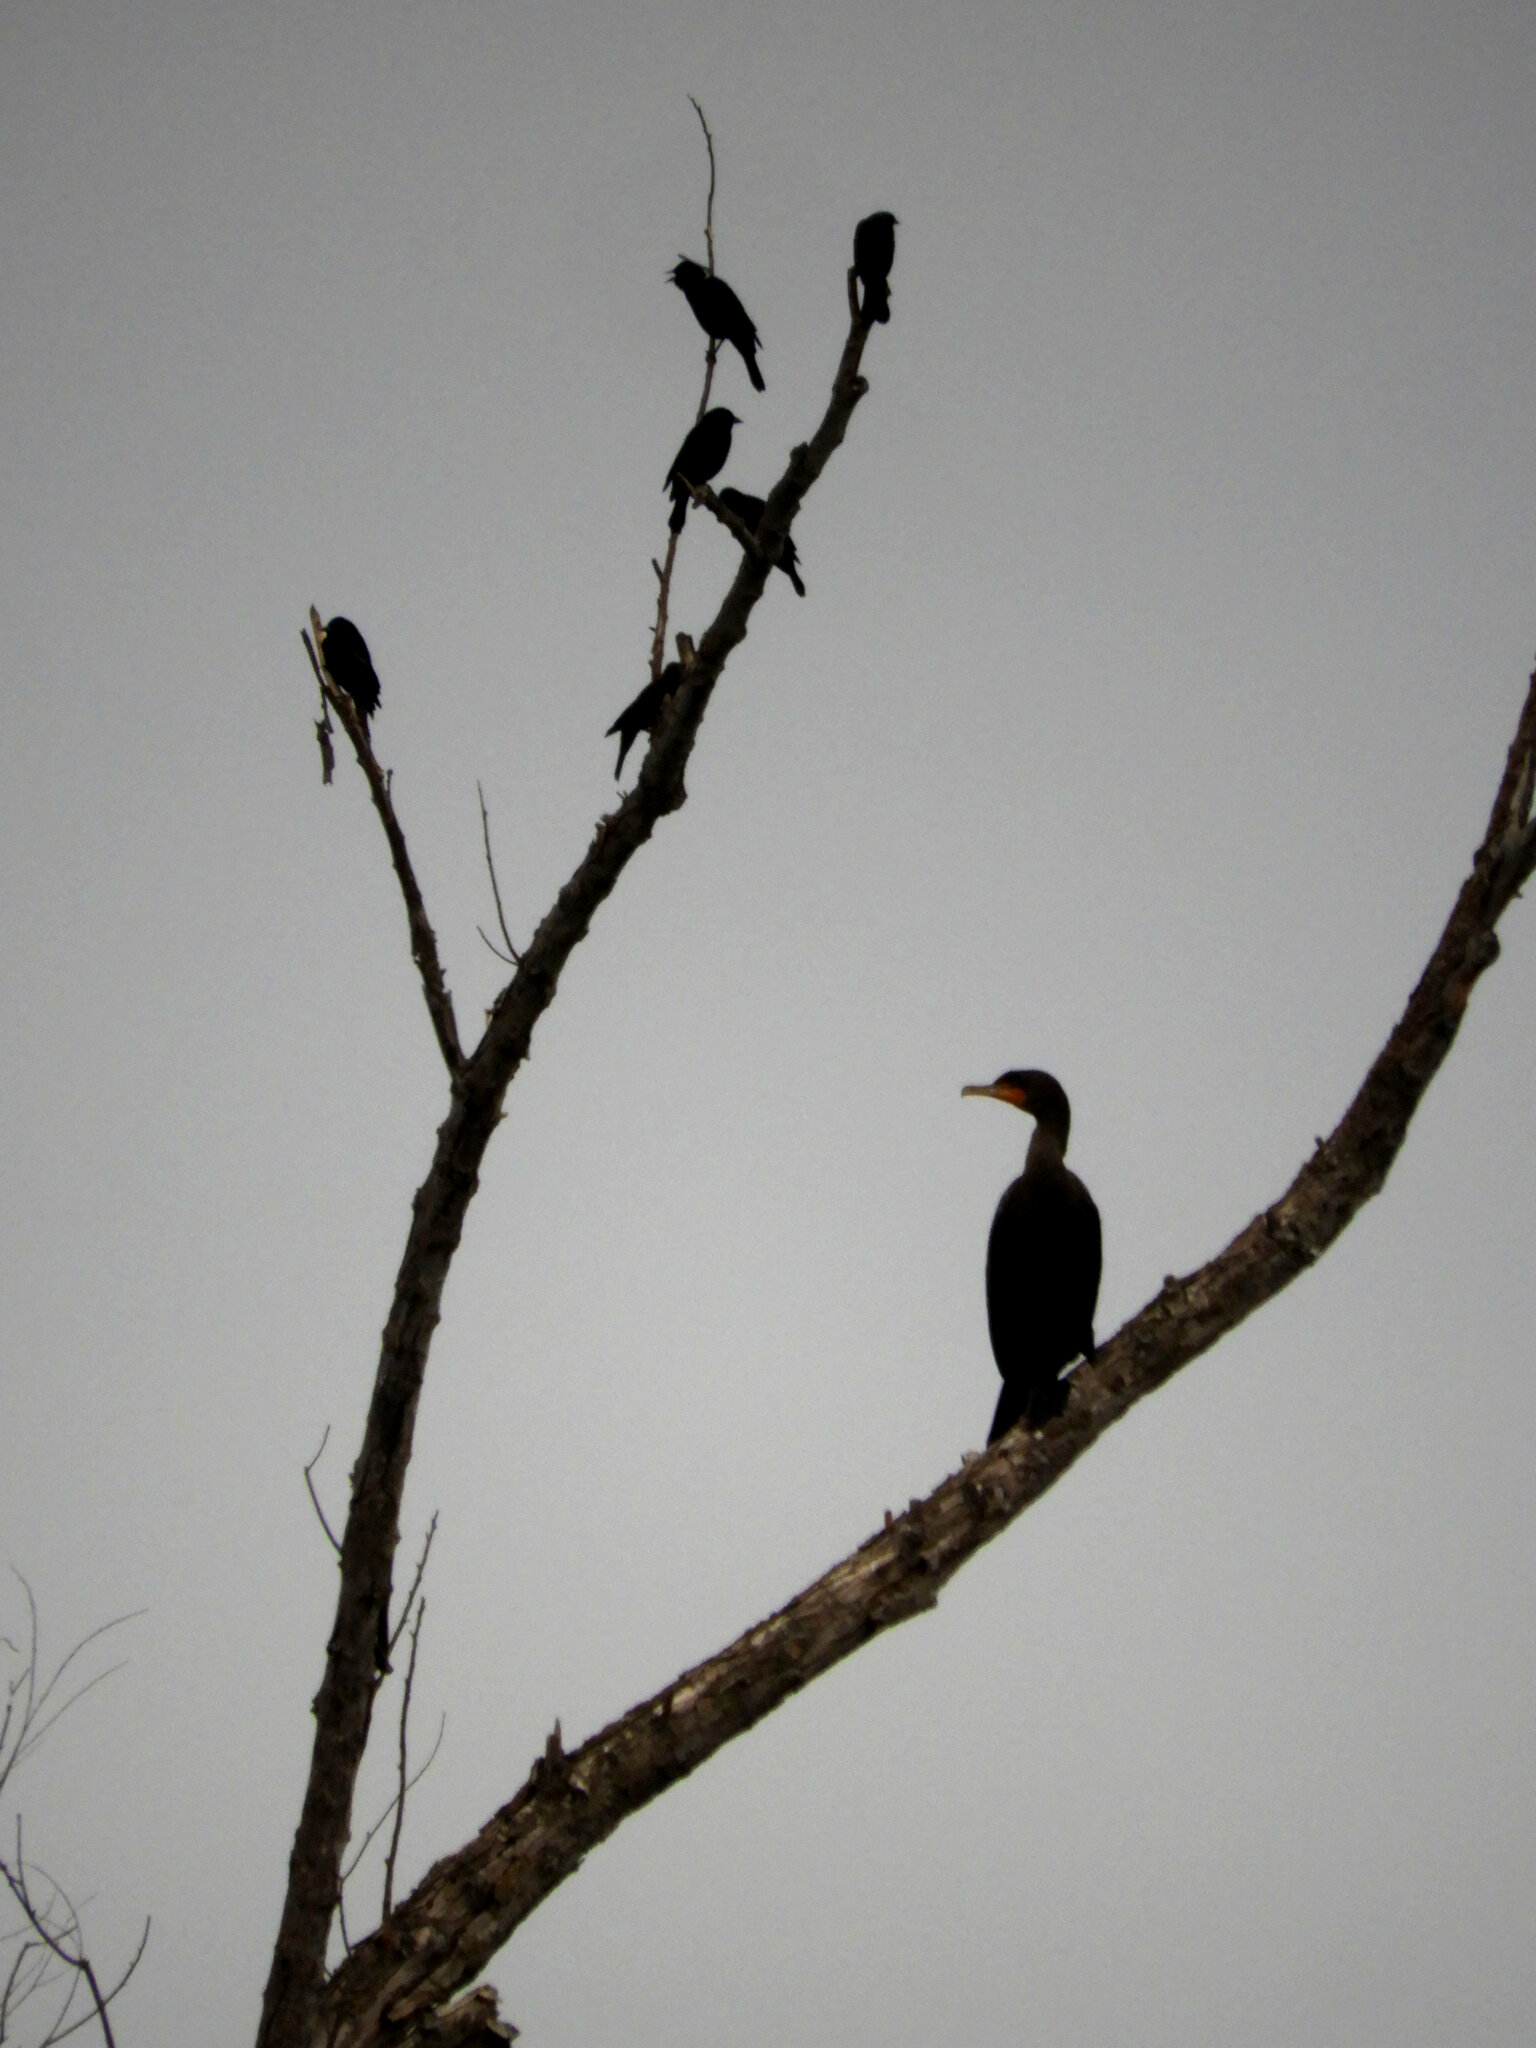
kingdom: Animalia
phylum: Chordata
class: Aves
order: Suliformes
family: Phalacrocoracidae
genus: Phalacrocorax
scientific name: Phalacrocorax auritus
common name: Double-crested cormorant
